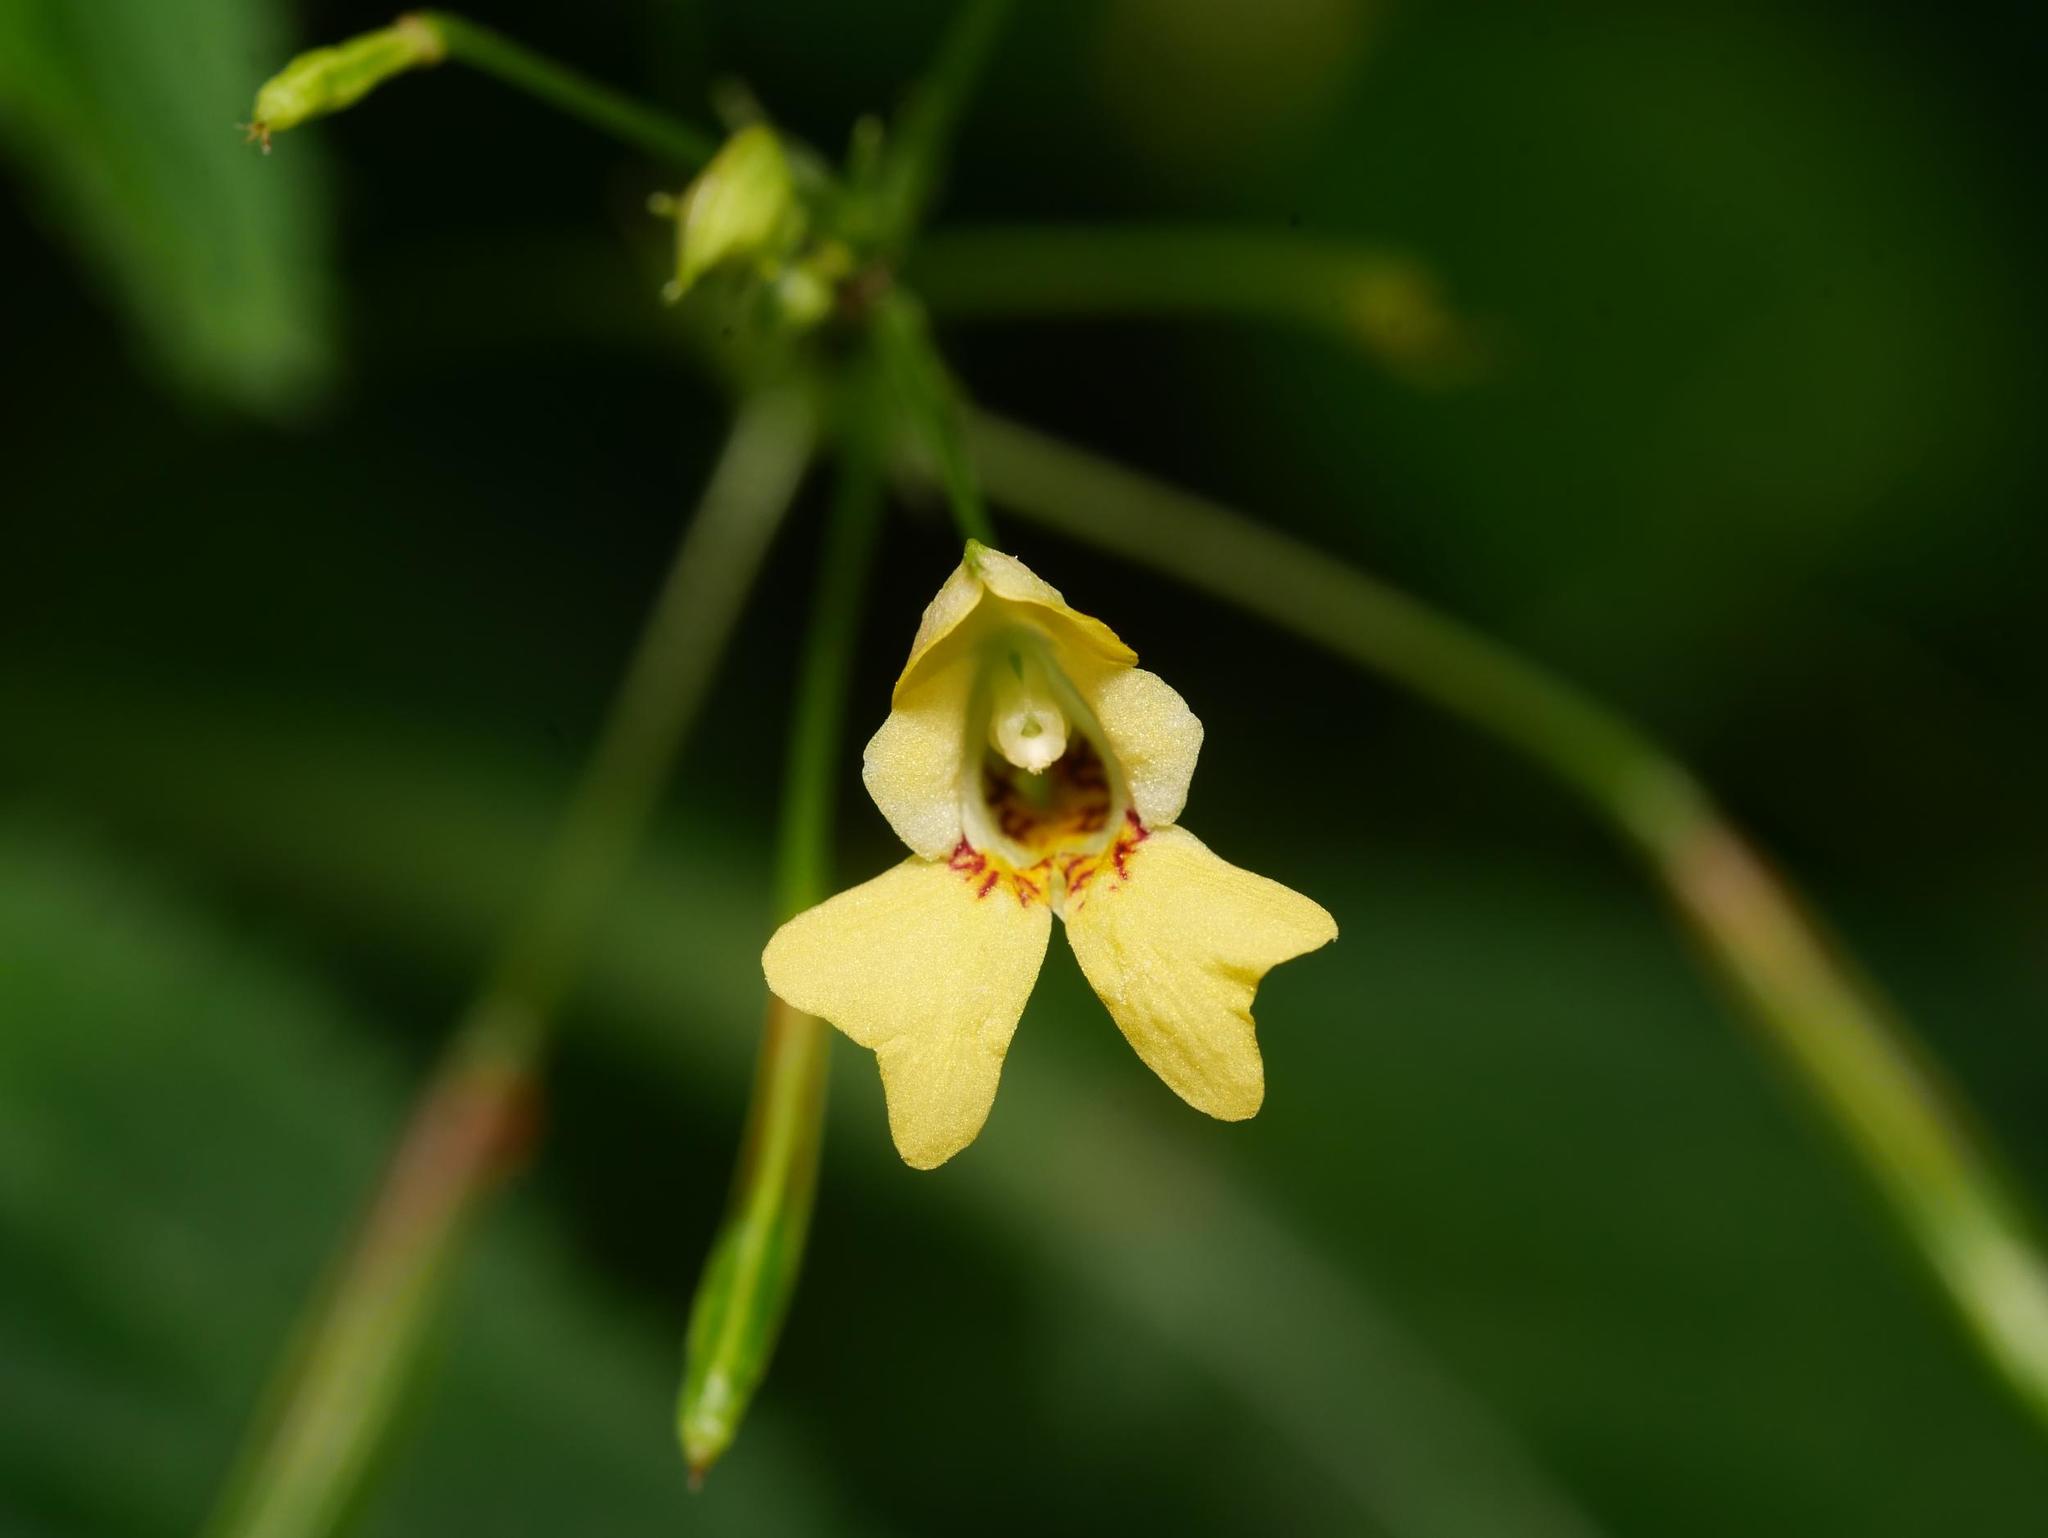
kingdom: Plantae
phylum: Tracheophyta
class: Magnoliopsida
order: Ericales
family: Balsaminaceae
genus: Impatiens
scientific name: Impatiens parviflora
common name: Small balsam
